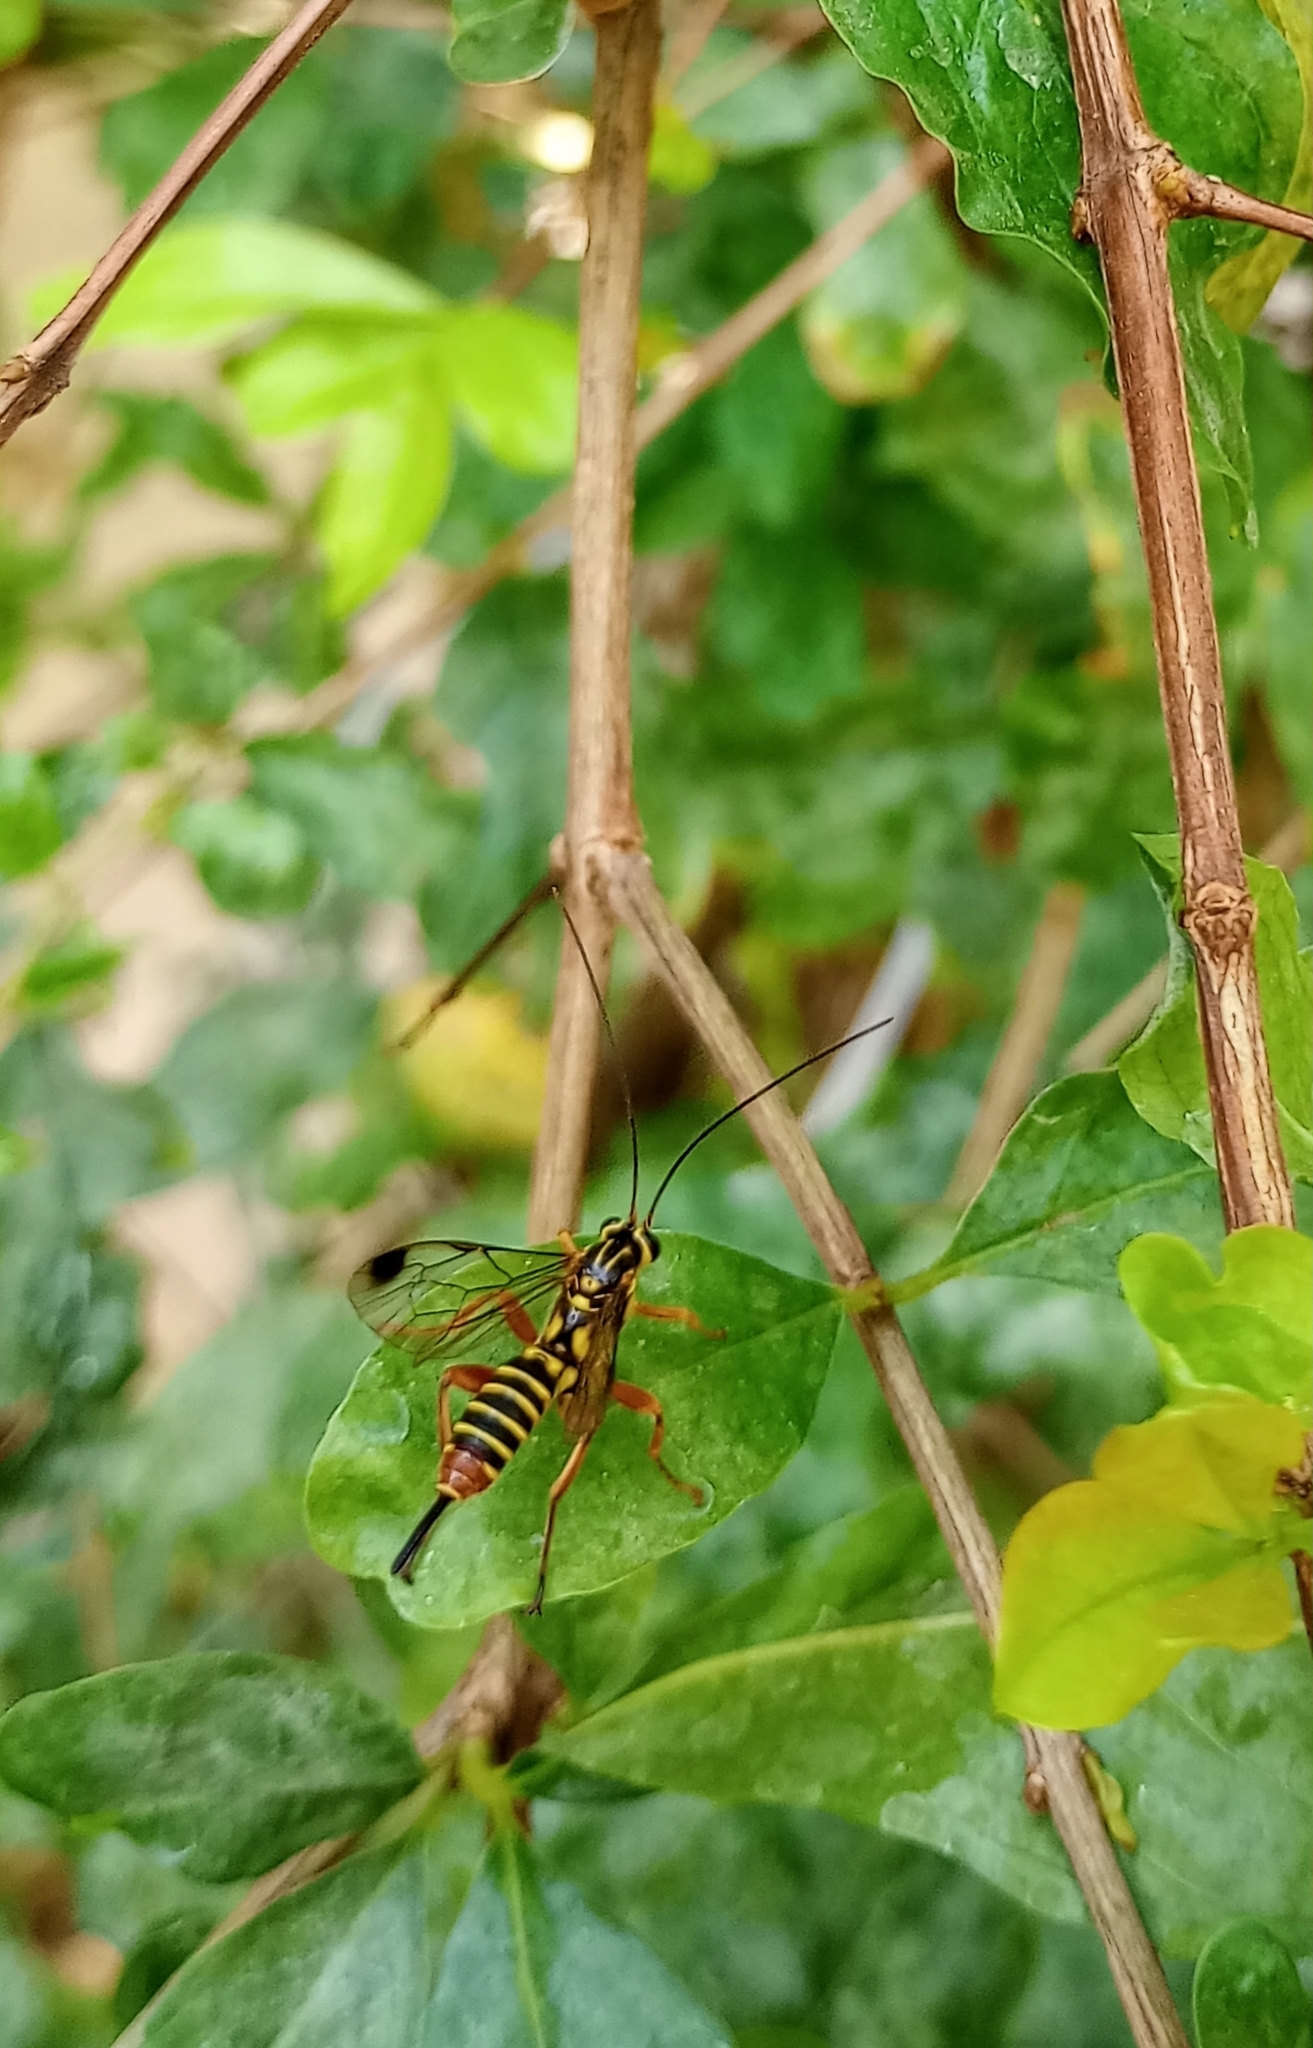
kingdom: Animalia
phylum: Arthropoda
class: Insecta
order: Hymenoptera
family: Ichneumonidae
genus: Echthromorpha
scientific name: Echthromorpha agrestoria
